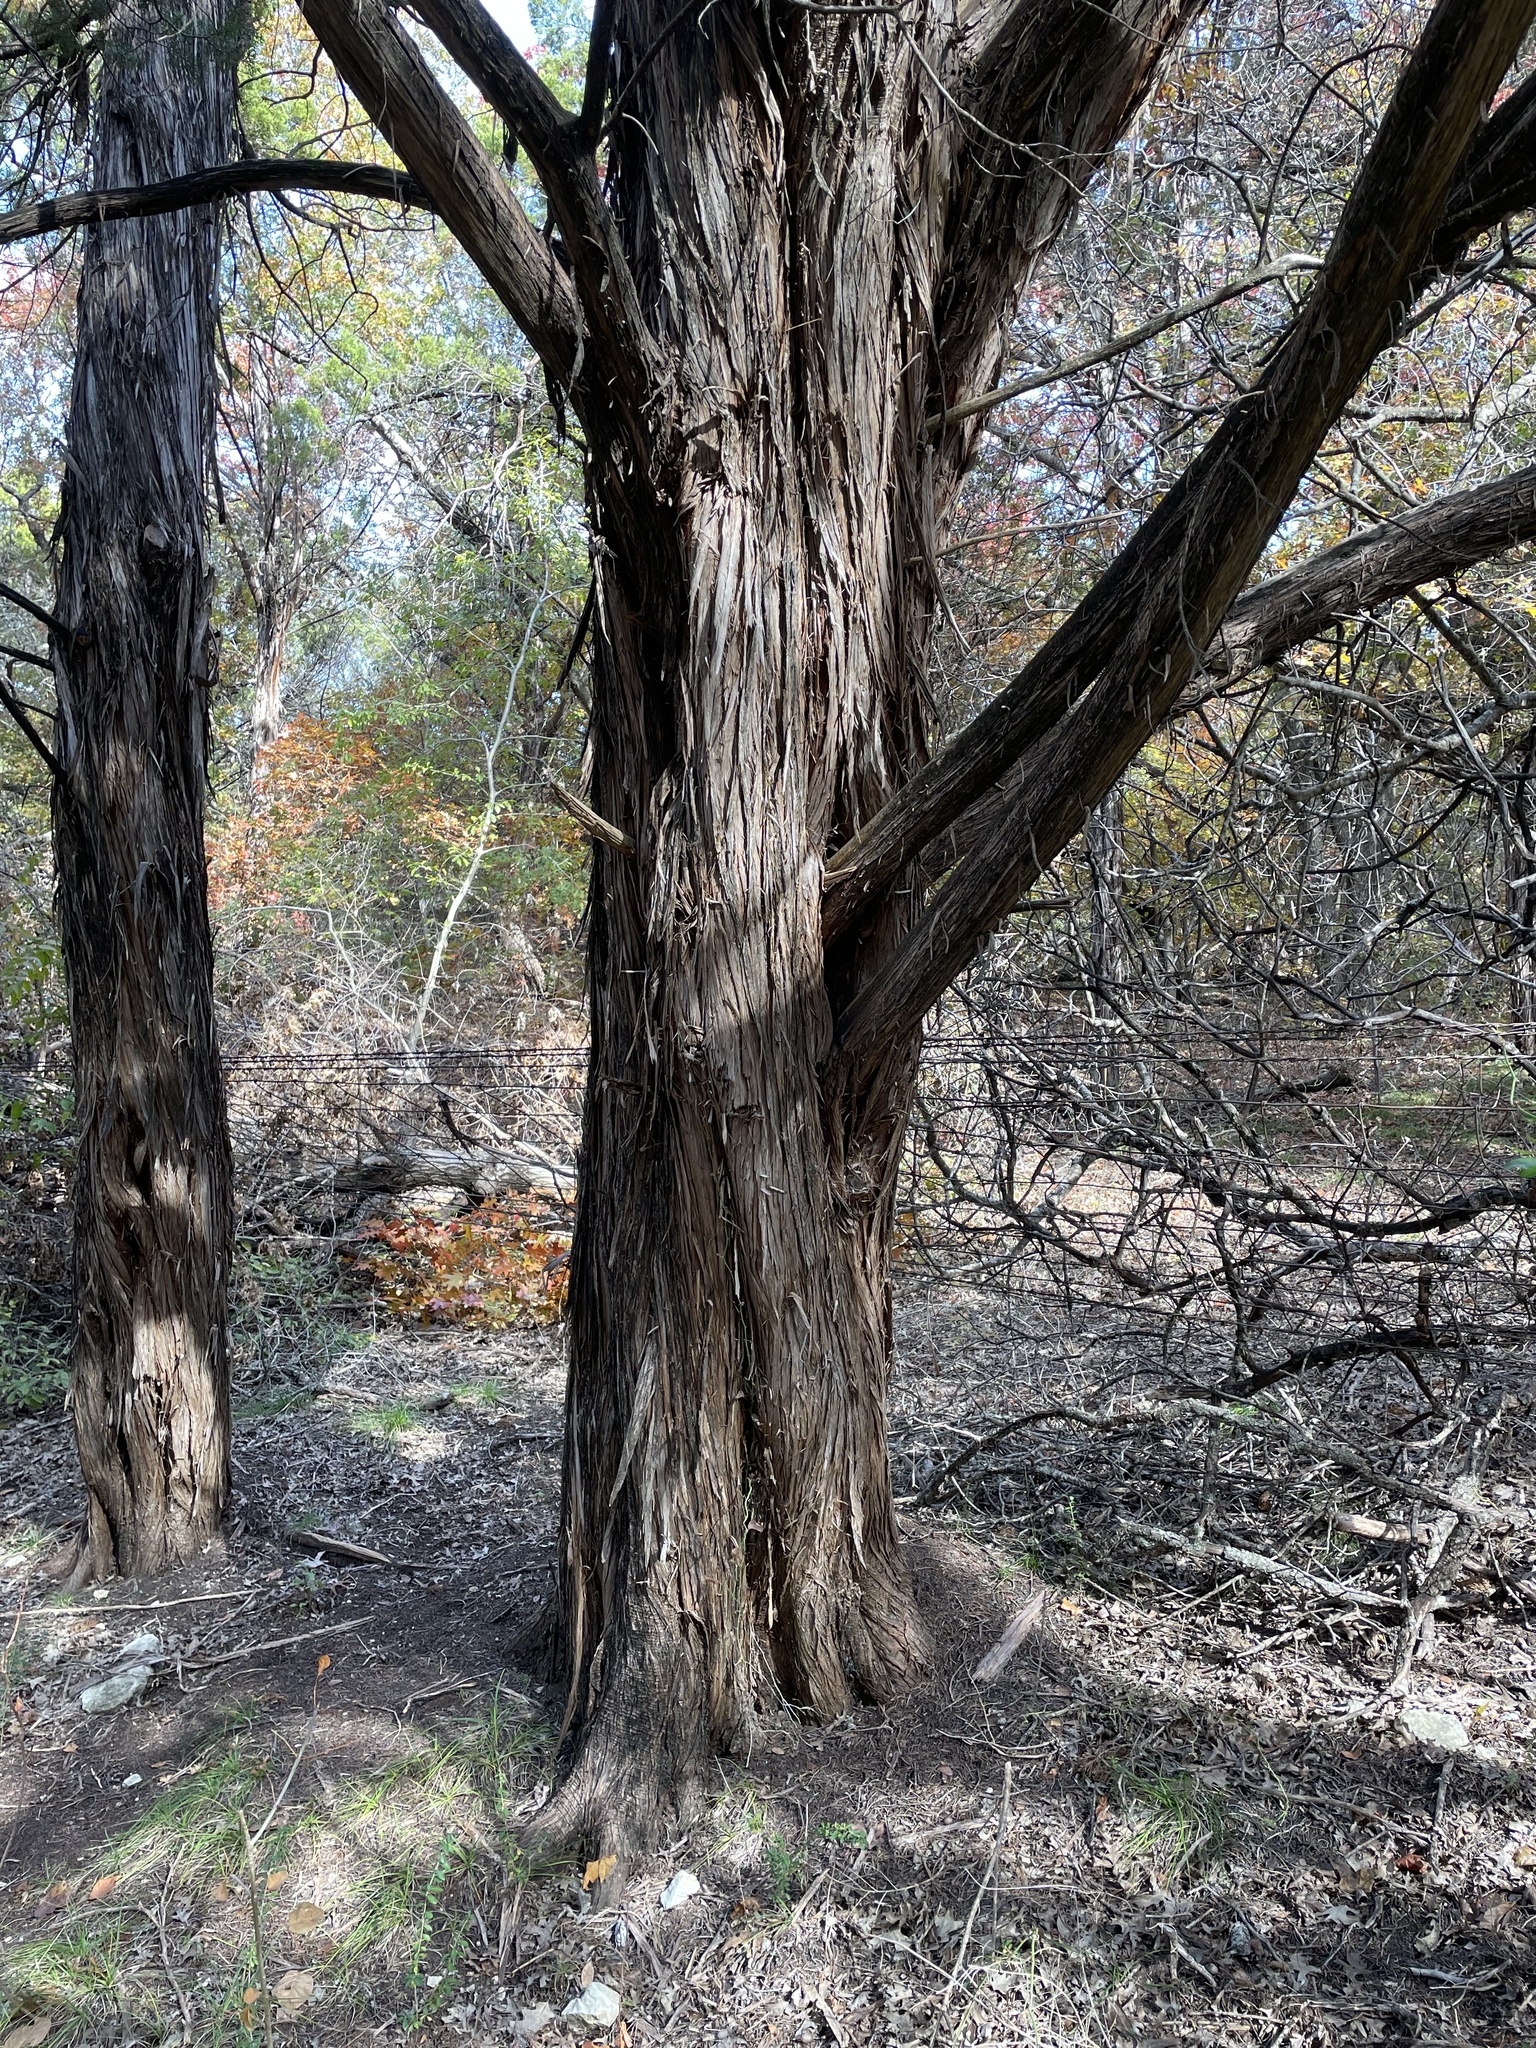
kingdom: Plantae
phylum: Tracheophyta
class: Pinopsida
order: Pinales
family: Cupressaceae
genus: Juniperus
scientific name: Juniperus ashei
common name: Mexican juniper
